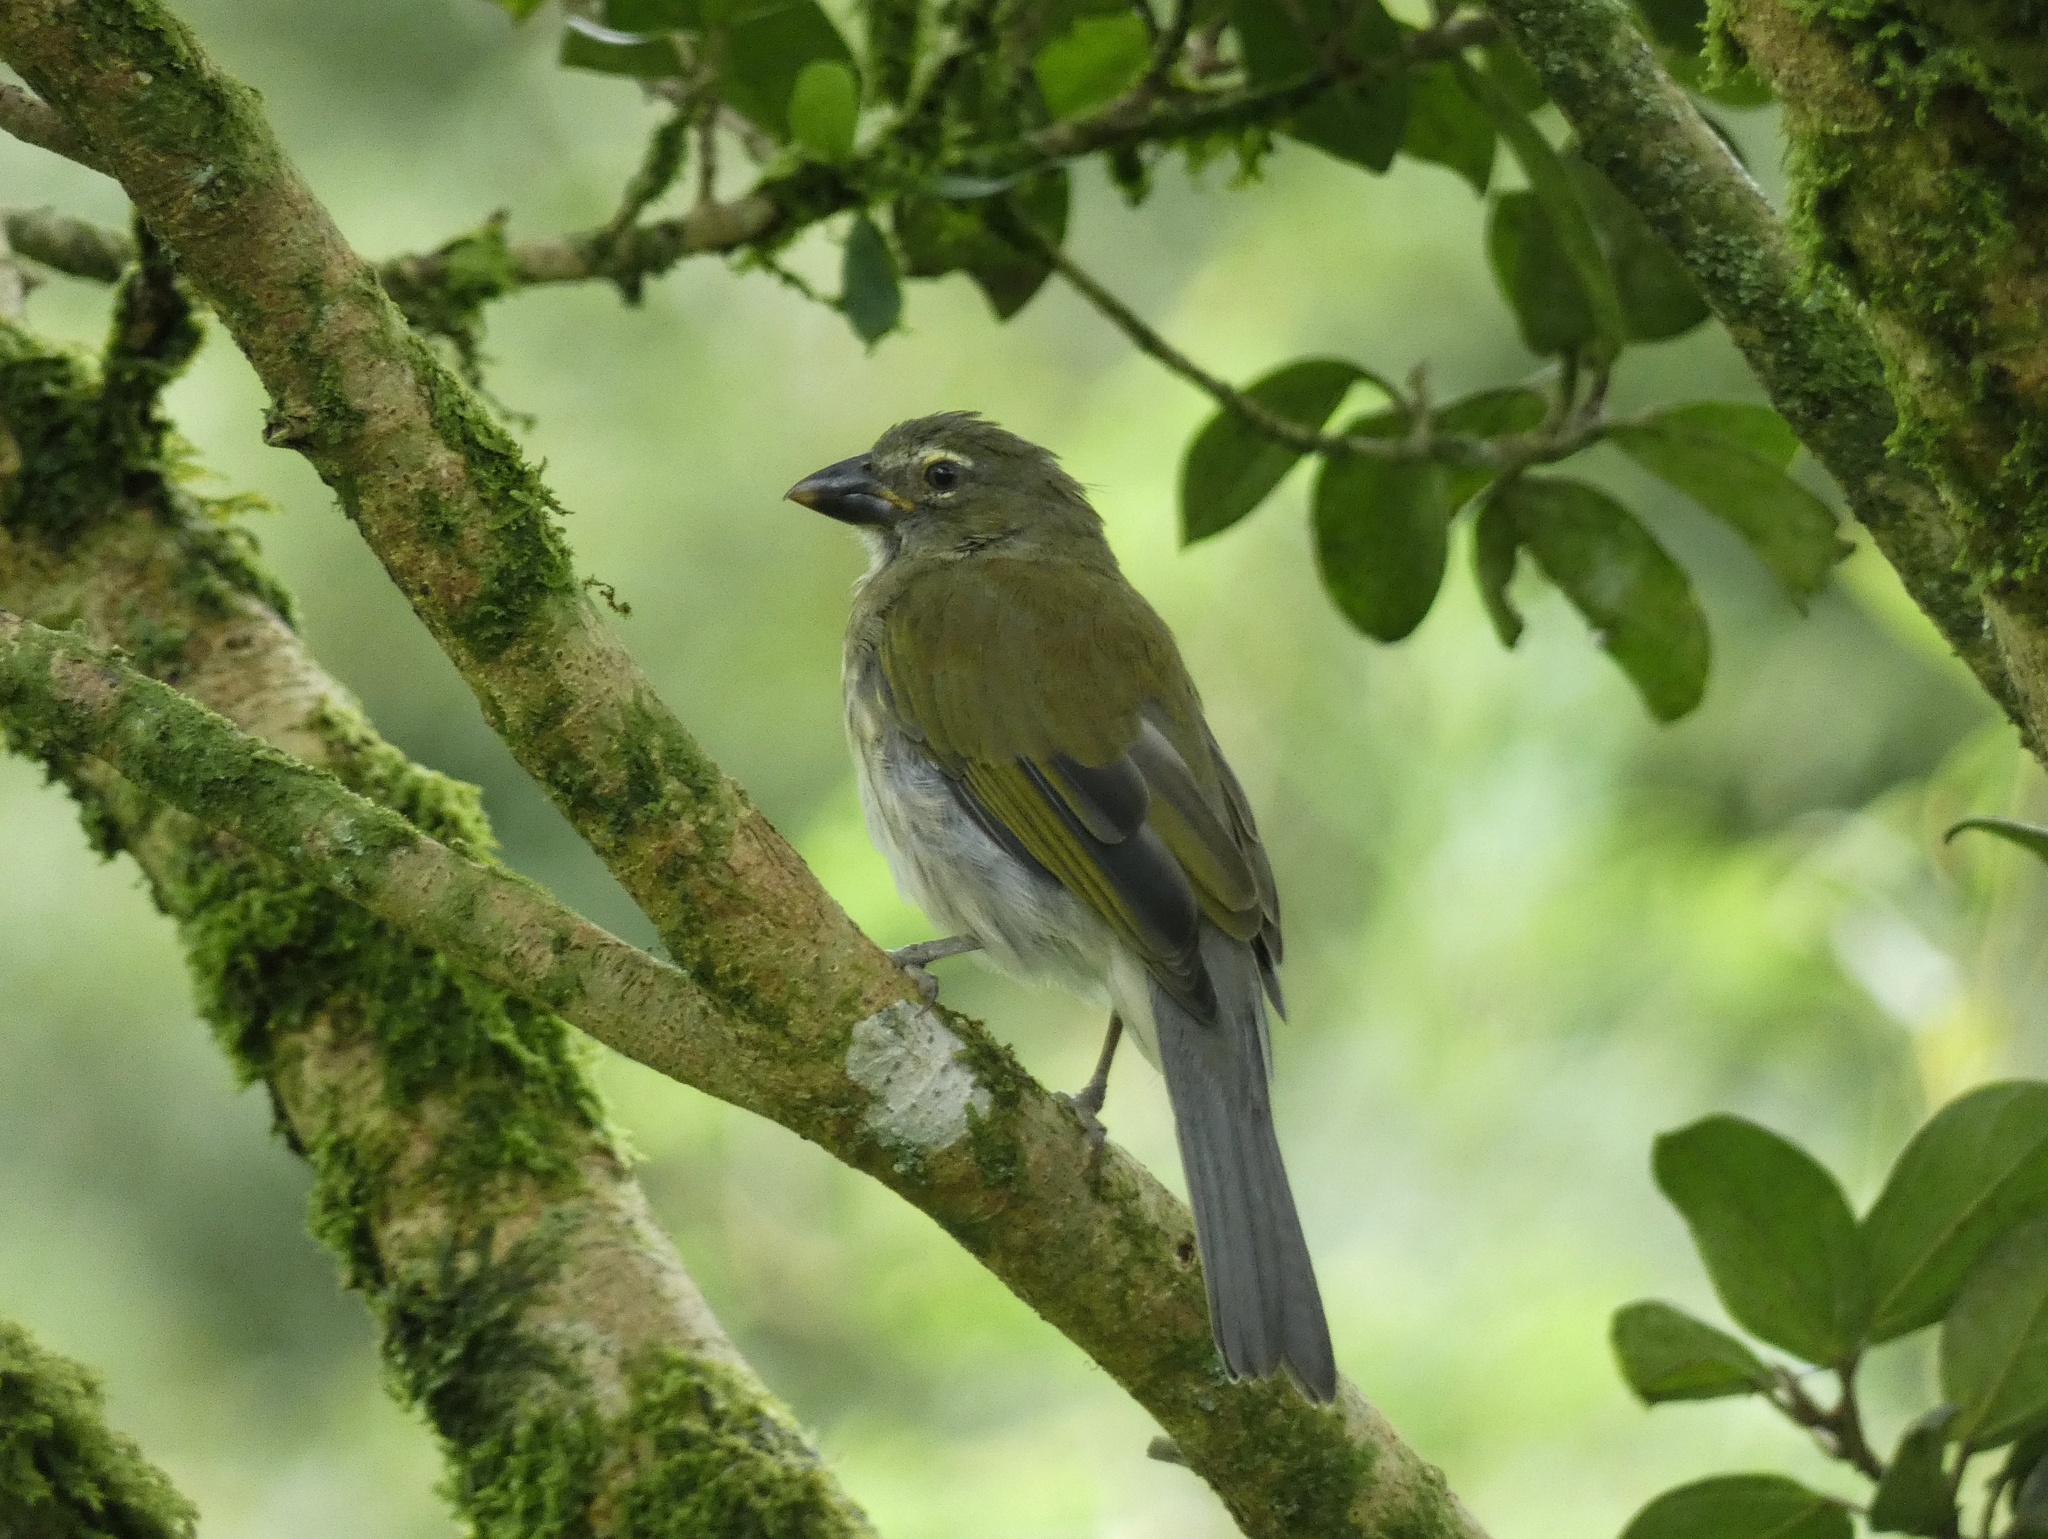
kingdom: Animalia
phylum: Chordata
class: Aves
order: Passeriformes
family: Thraupidae
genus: Saltator
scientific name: Saltator striatipectus
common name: Streaked saltator
